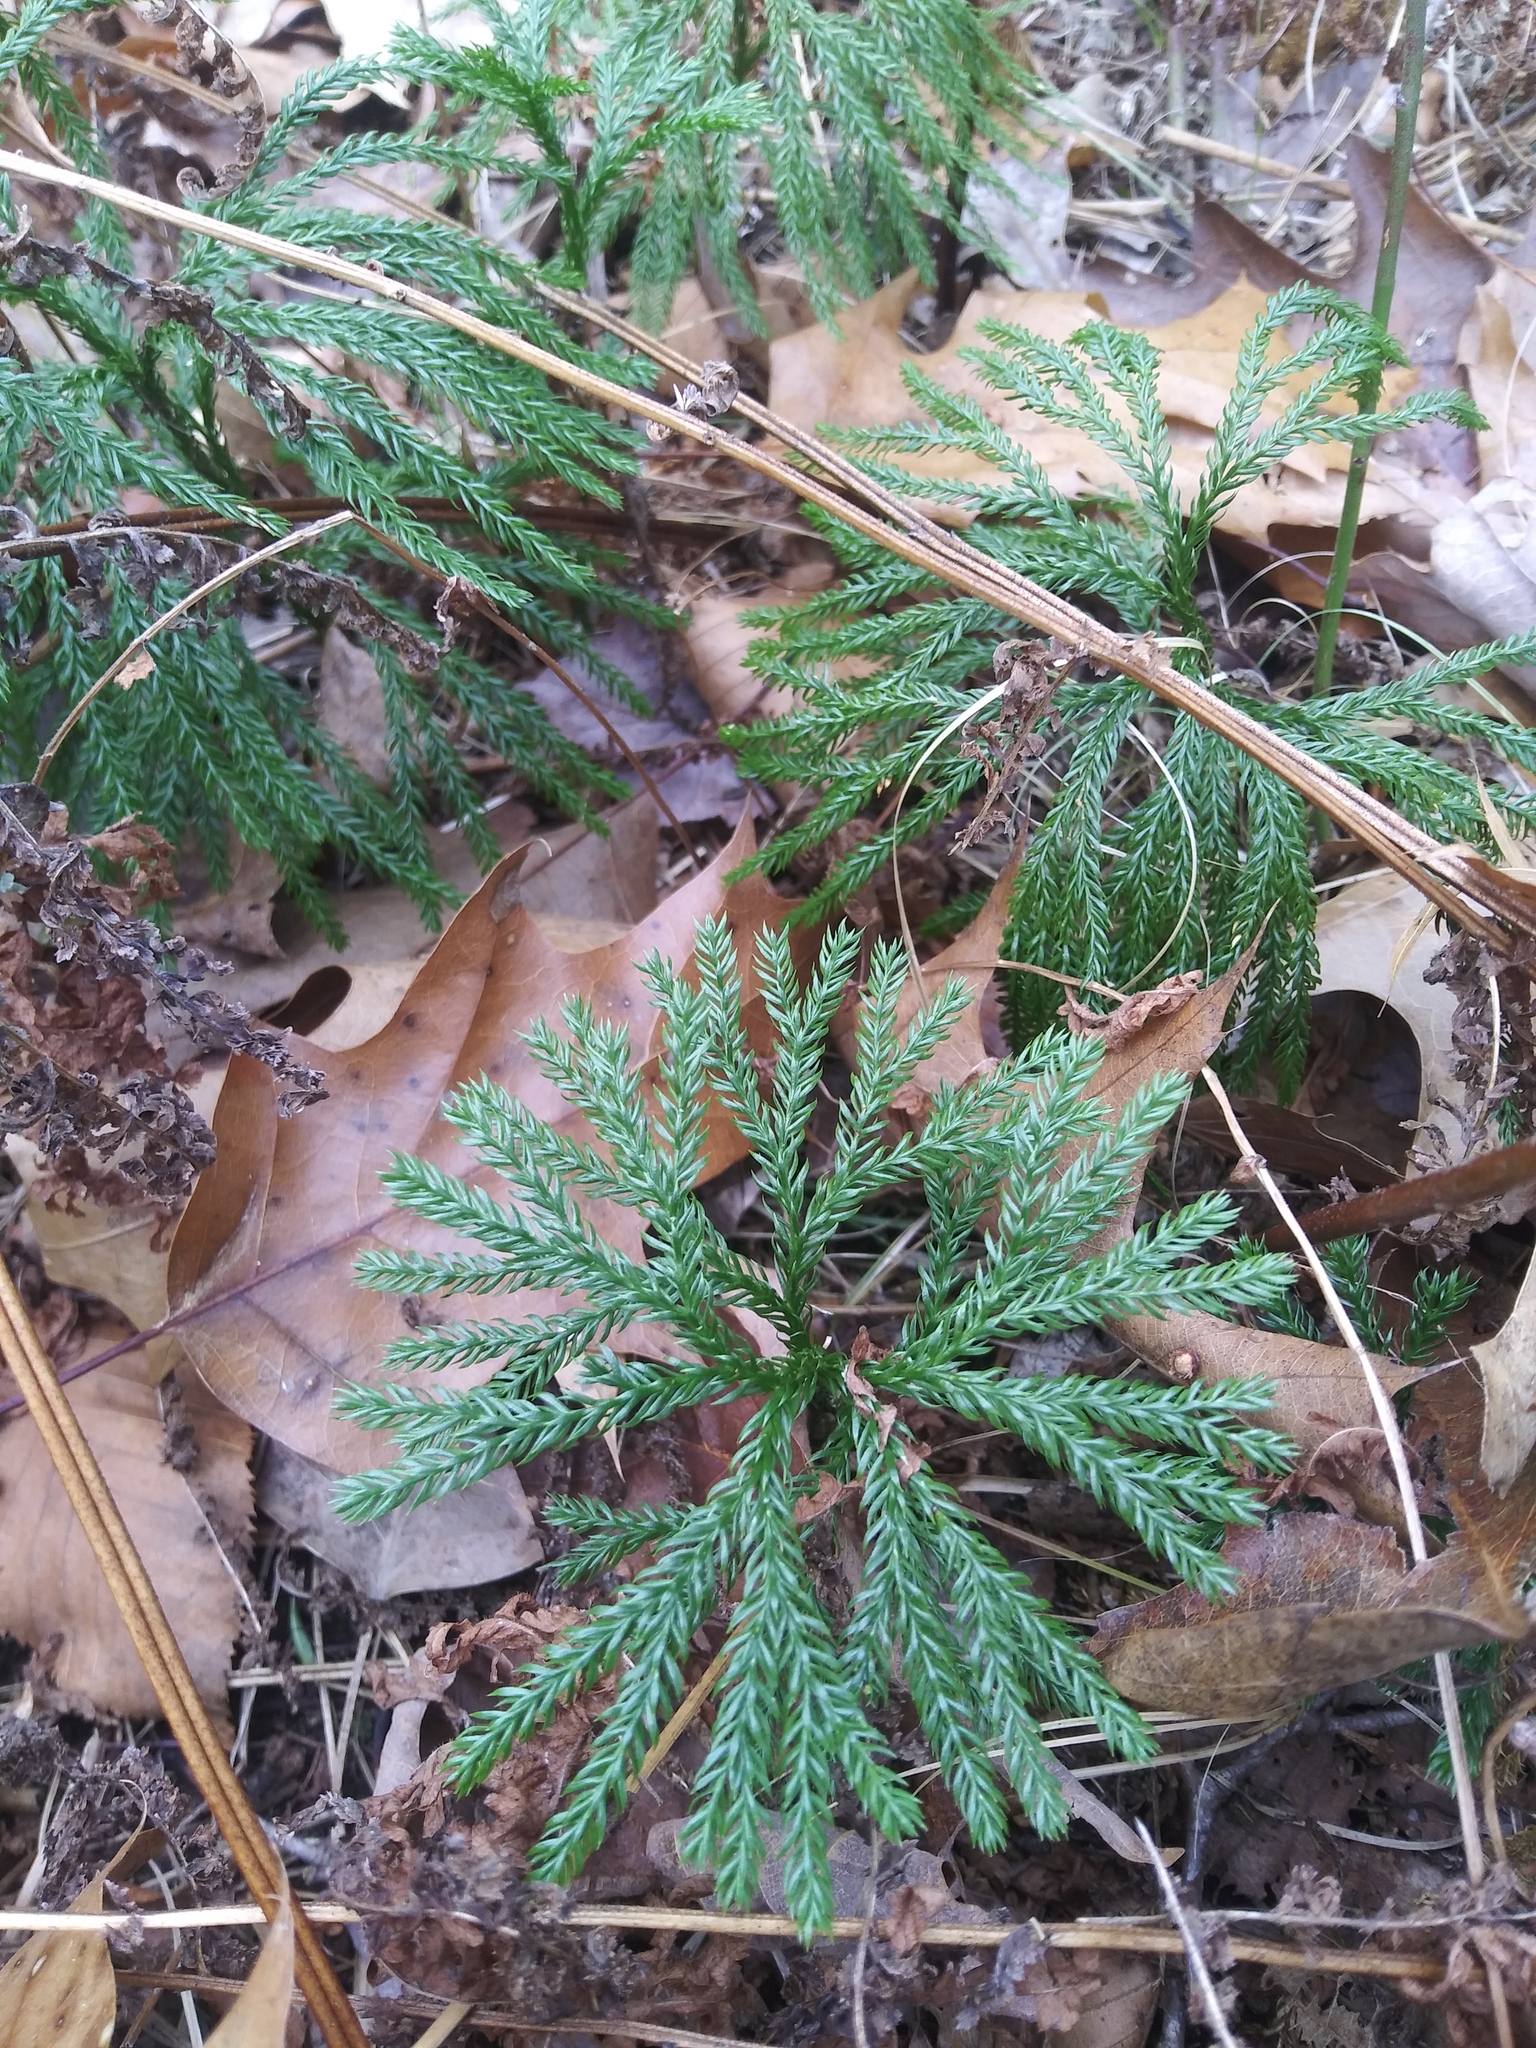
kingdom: Plantae
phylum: Tracheophyta
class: Lycopodiopsida
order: Lycopodiales
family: Lycopodiaceae
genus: Dendrolycopodium
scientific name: Dendrolycopodium obscurum
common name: Common ground-pine
